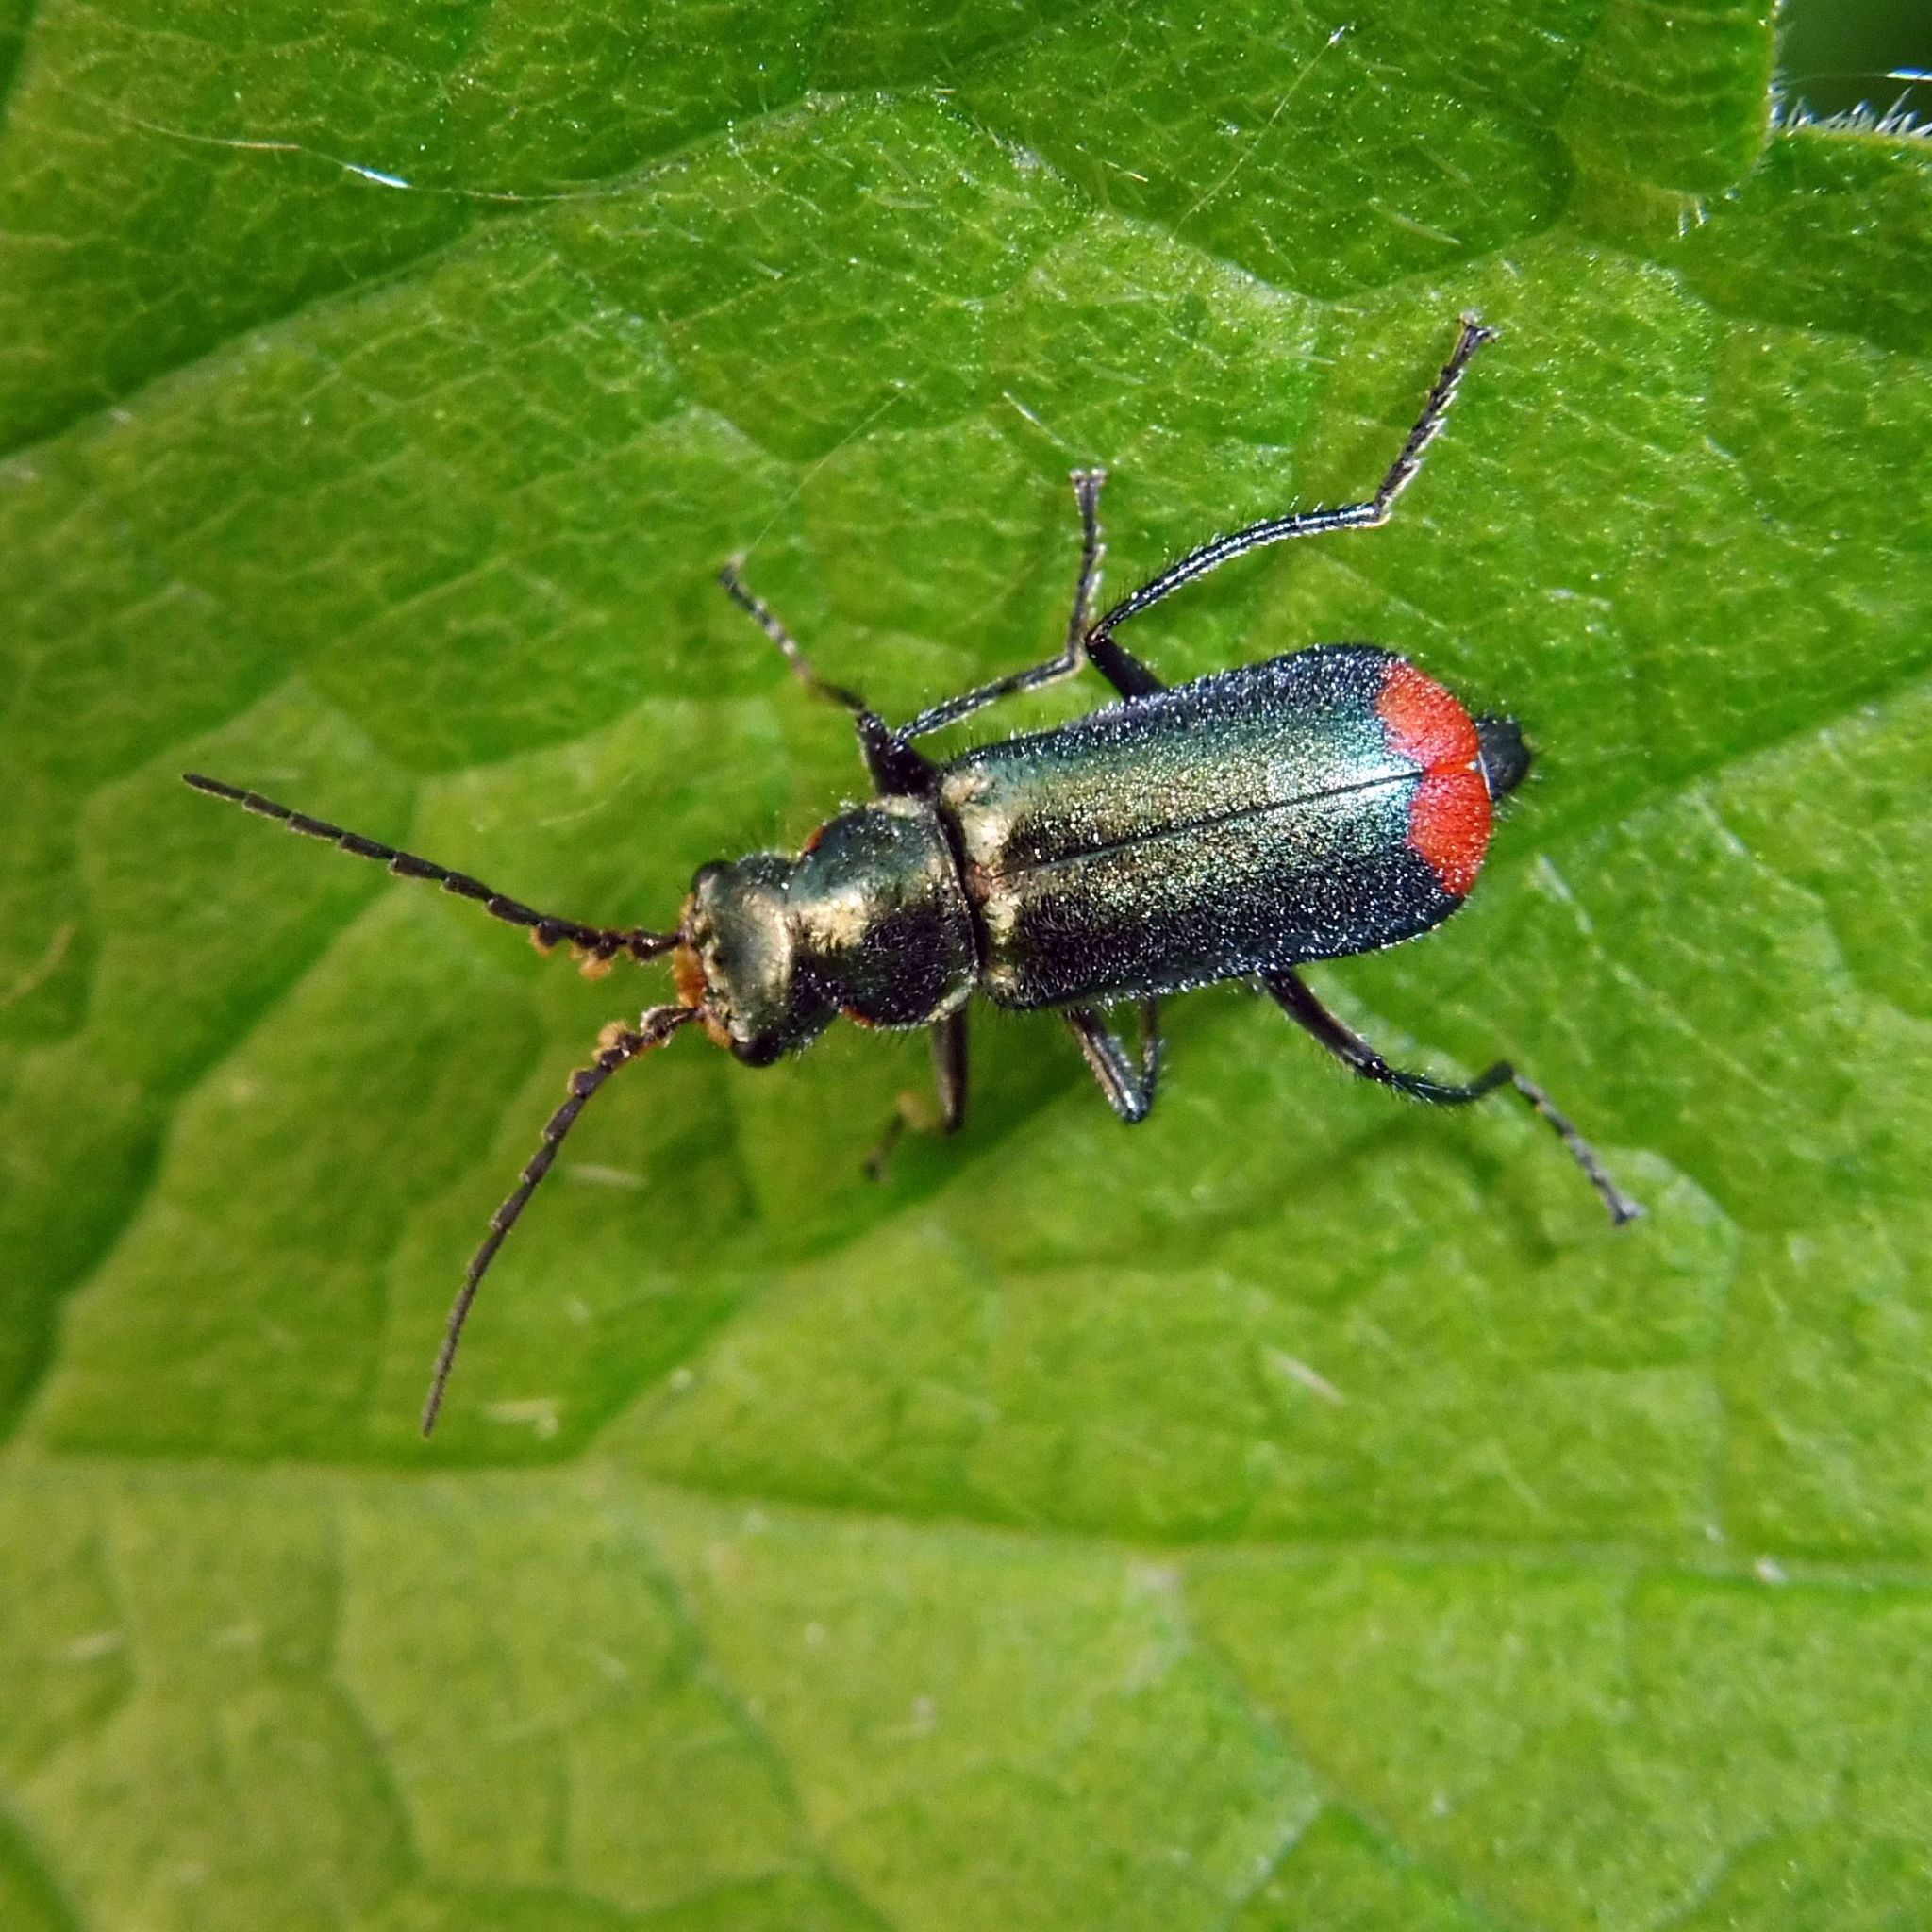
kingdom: Animalia
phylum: Arthropoda
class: Insecta
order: Coleoptera
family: Melyridae
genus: Malachius
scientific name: Malachius bipustulatus
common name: Malachite beetle
